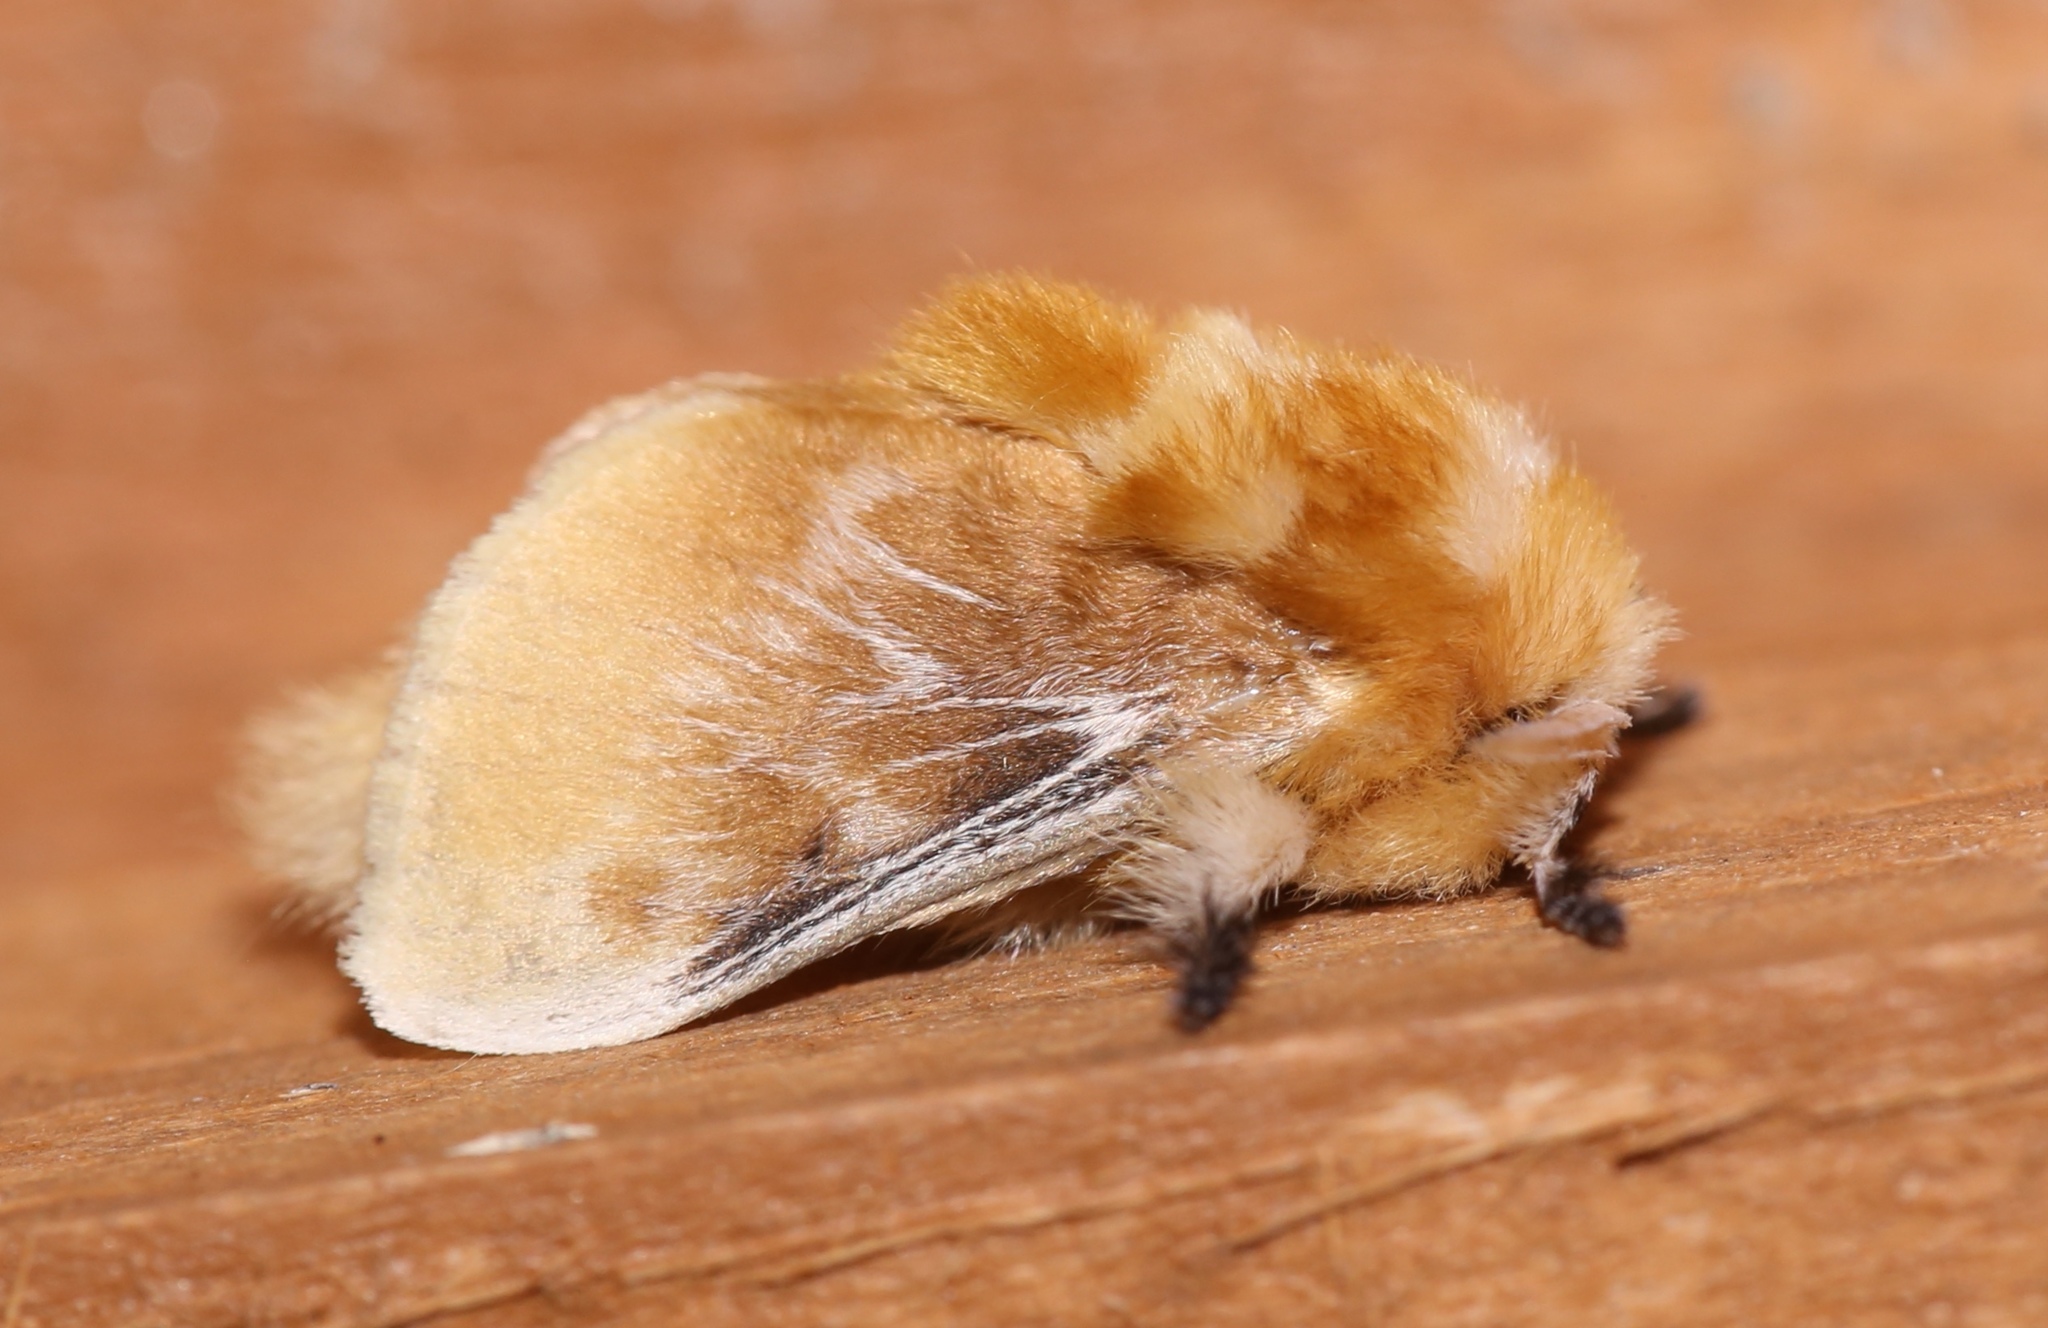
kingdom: Animalia
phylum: Arthropoda
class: Insecta
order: Lepidoptera
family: Megalopygidae
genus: Megalopyge
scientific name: Megalopyge opercularis
